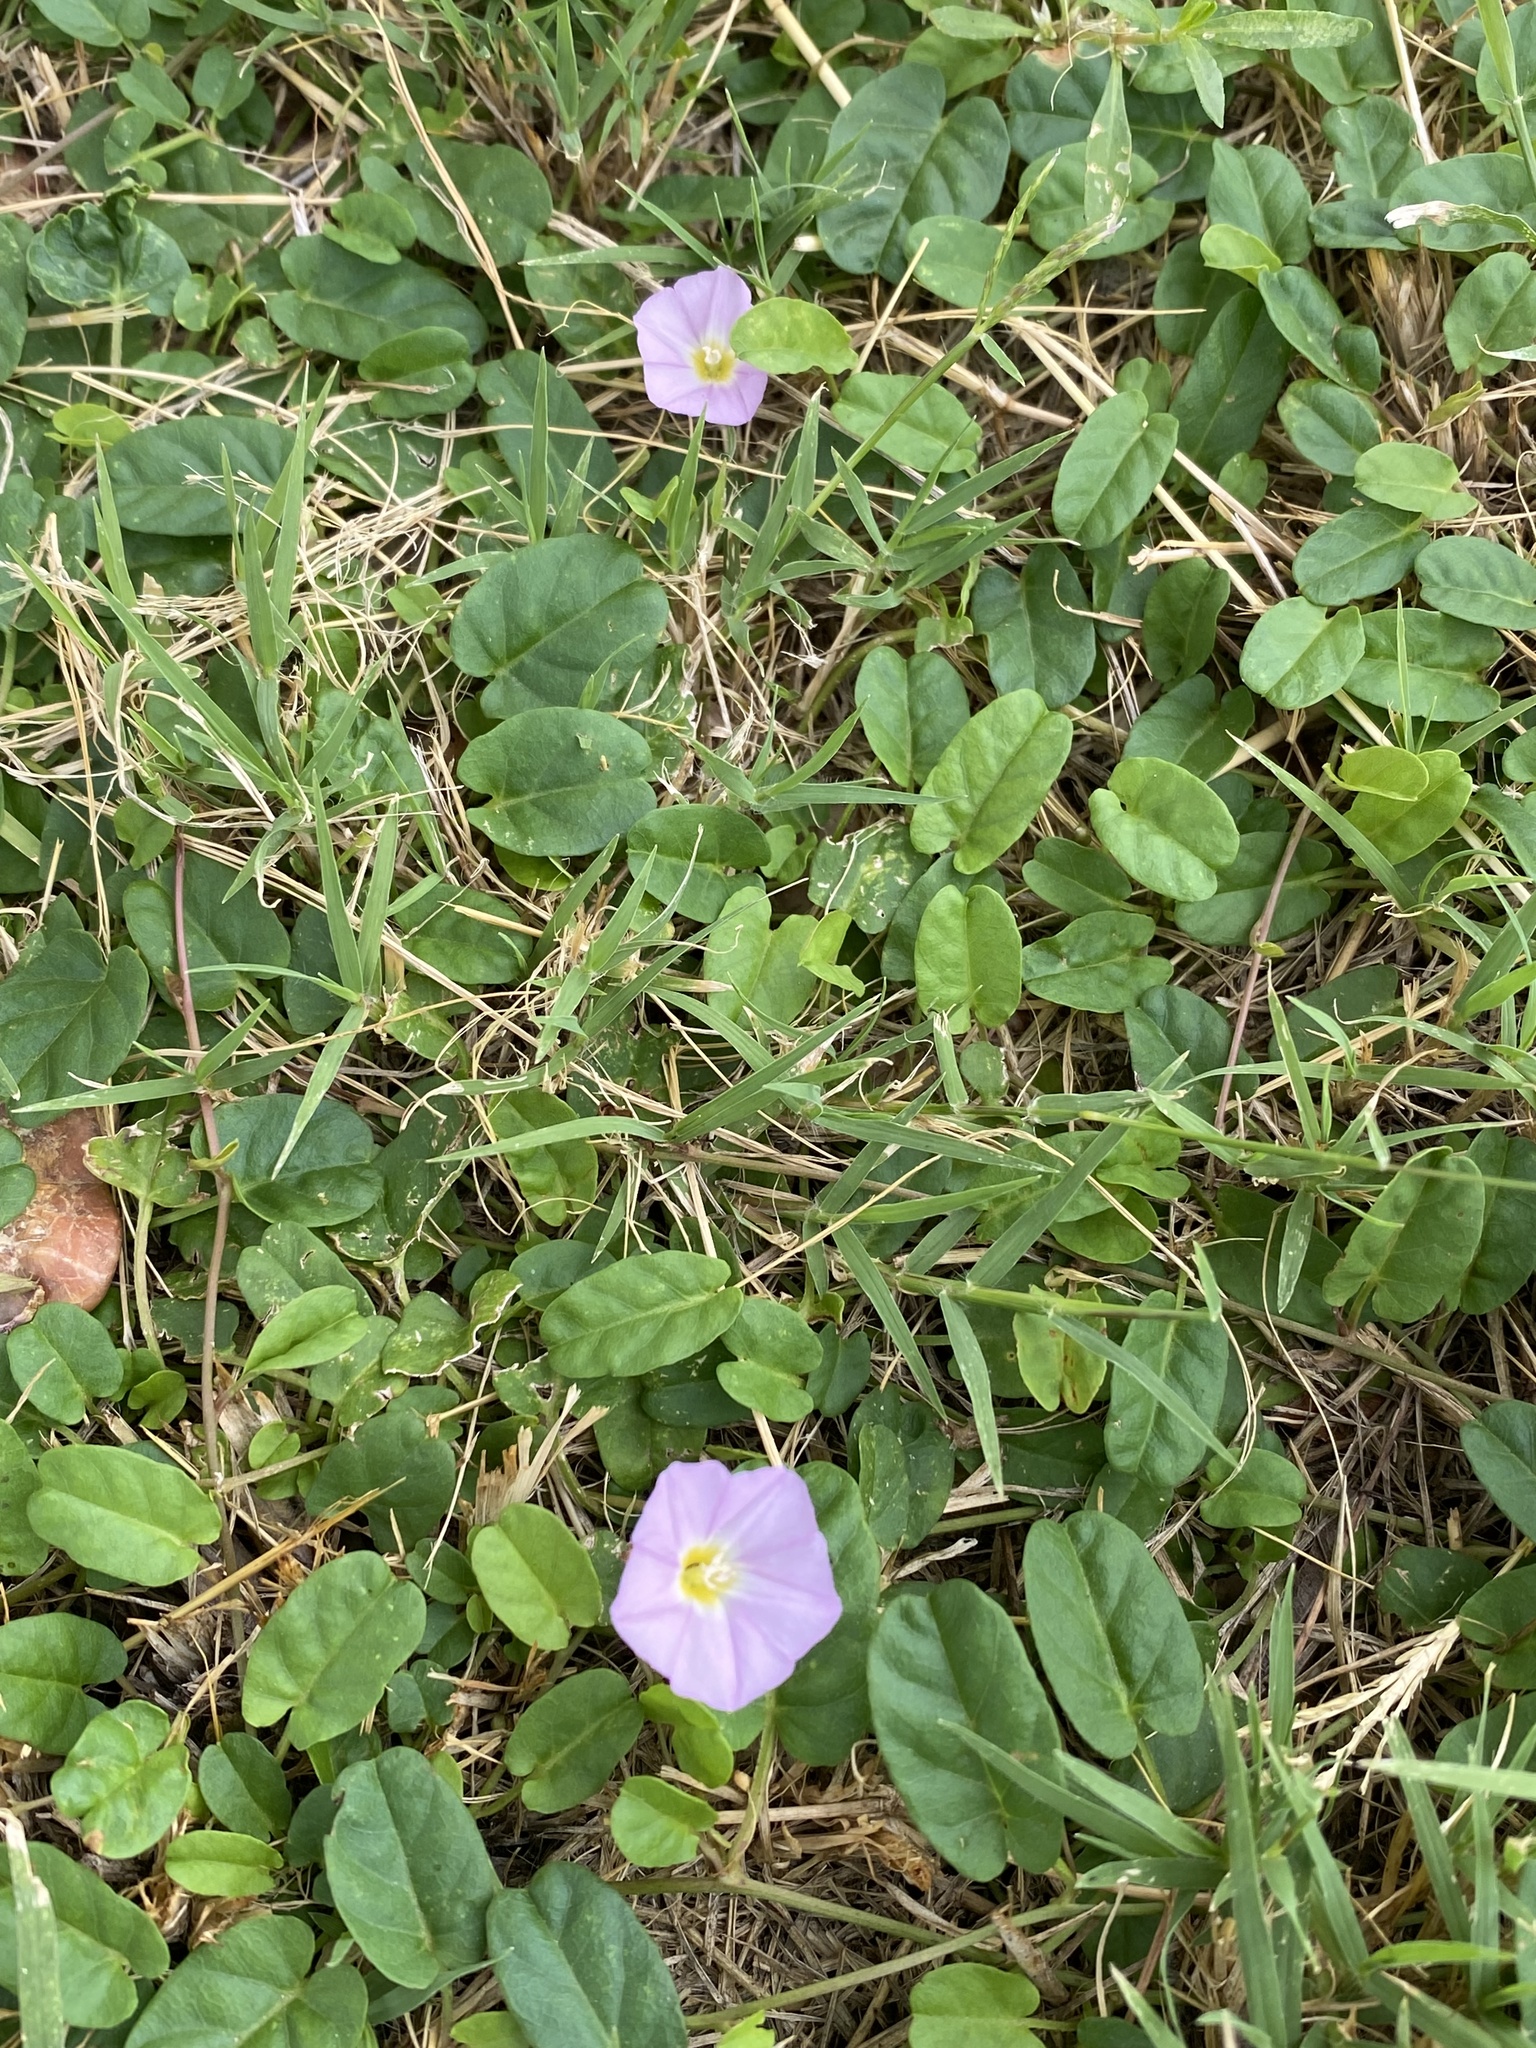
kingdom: Plantae
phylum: Tracheophyta
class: Magnoliopsida
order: Solanales
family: Convolvulaceae
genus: Polymeria
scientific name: Polymeria calycina
